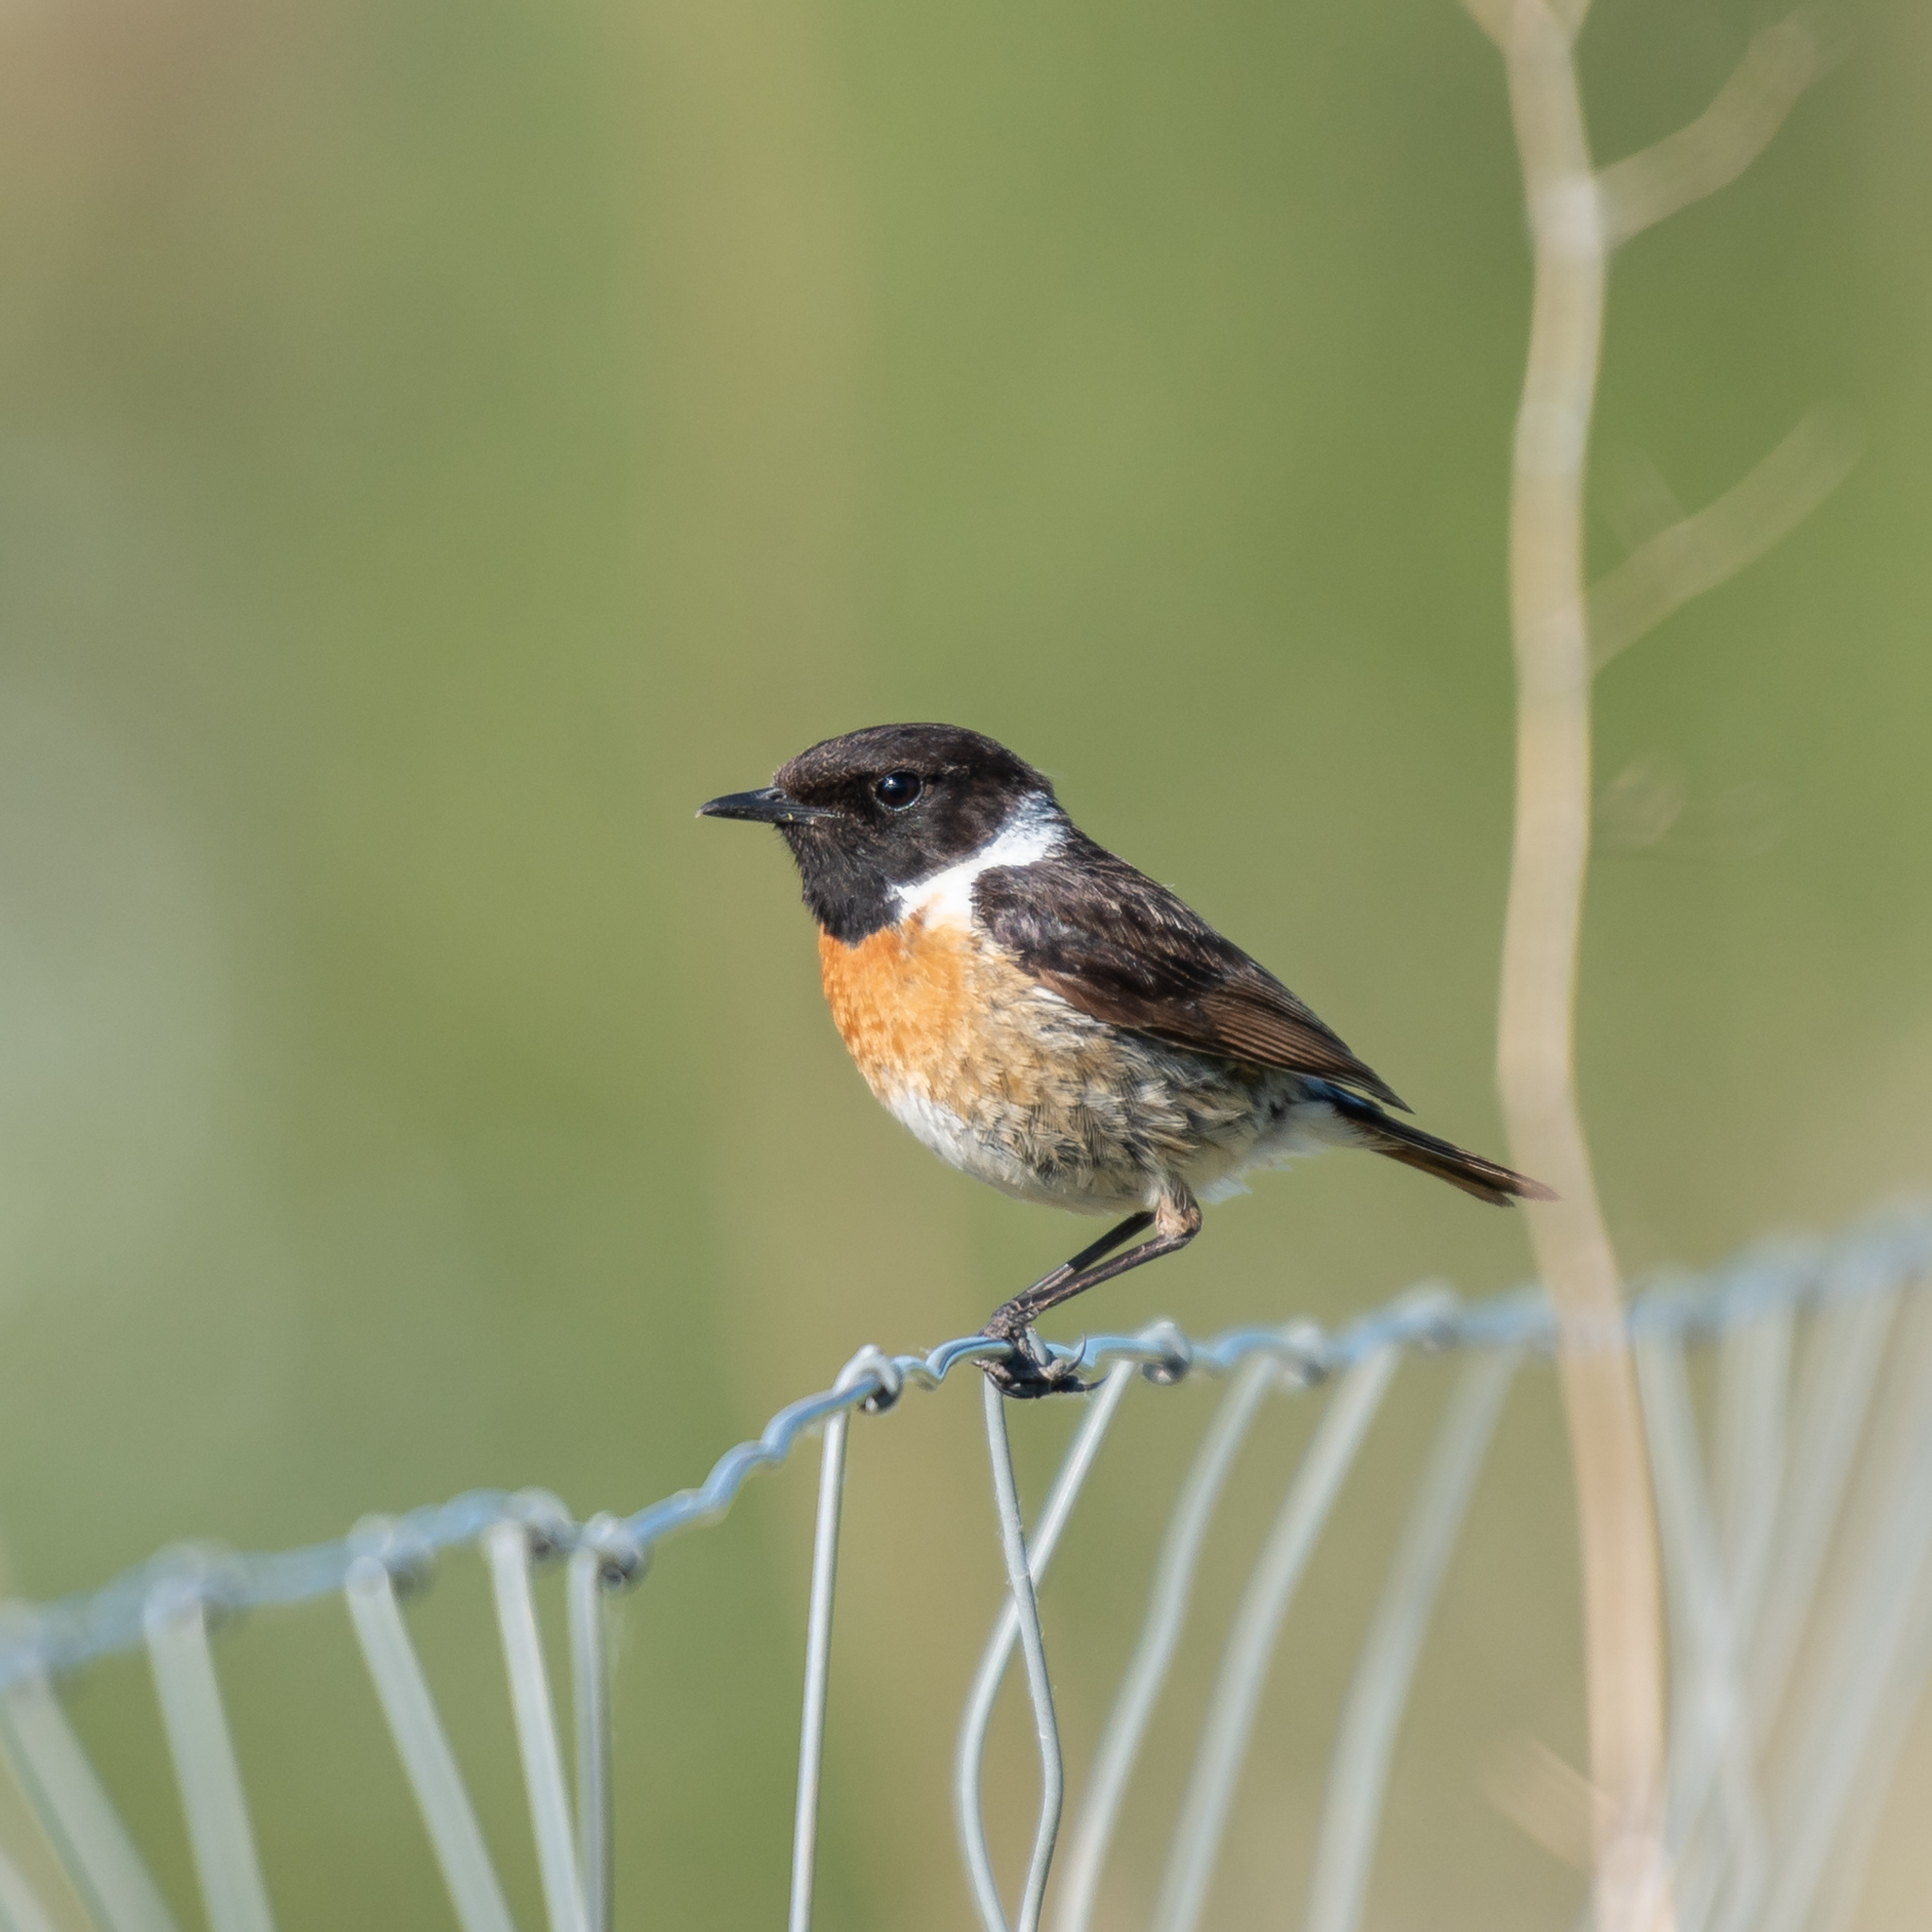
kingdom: Animalia
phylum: Chordata
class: Aves
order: Passeriformes
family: Muscicapidae
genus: Saxicola
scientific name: Saxicola rubicola
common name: European stonechat
